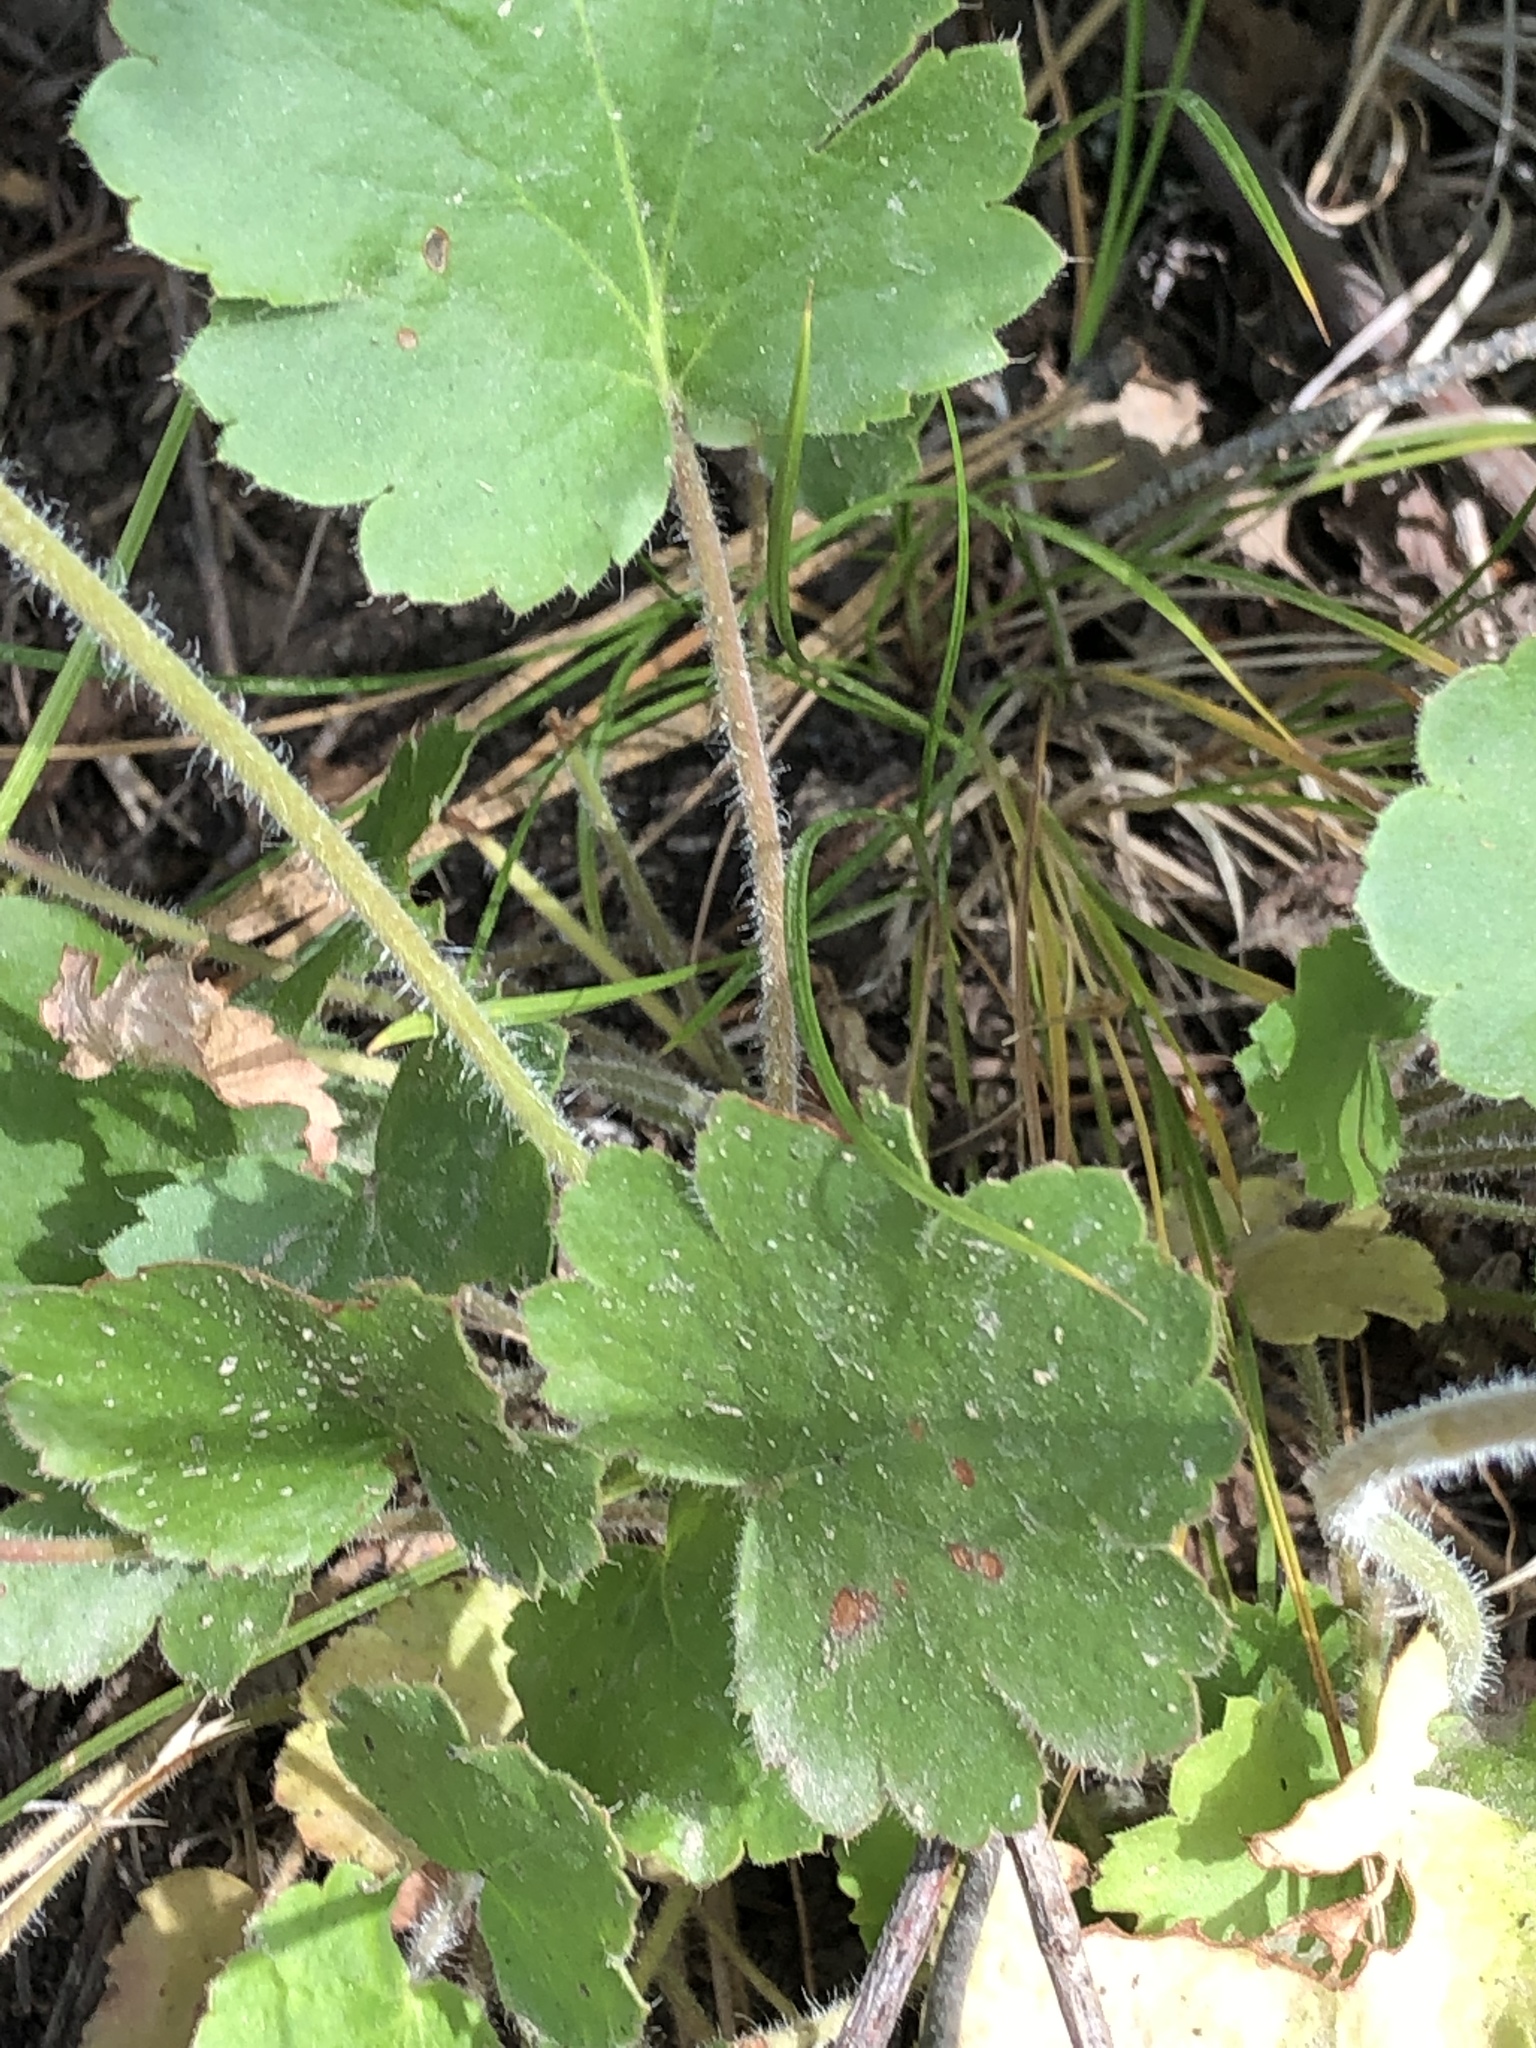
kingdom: Plantae
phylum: Tracheophyta
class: Magnoliopsida
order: Saxifragales
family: Saxifragaceae
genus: Heuchera
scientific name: Heuchera cylindrica
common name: Mat alumroot
